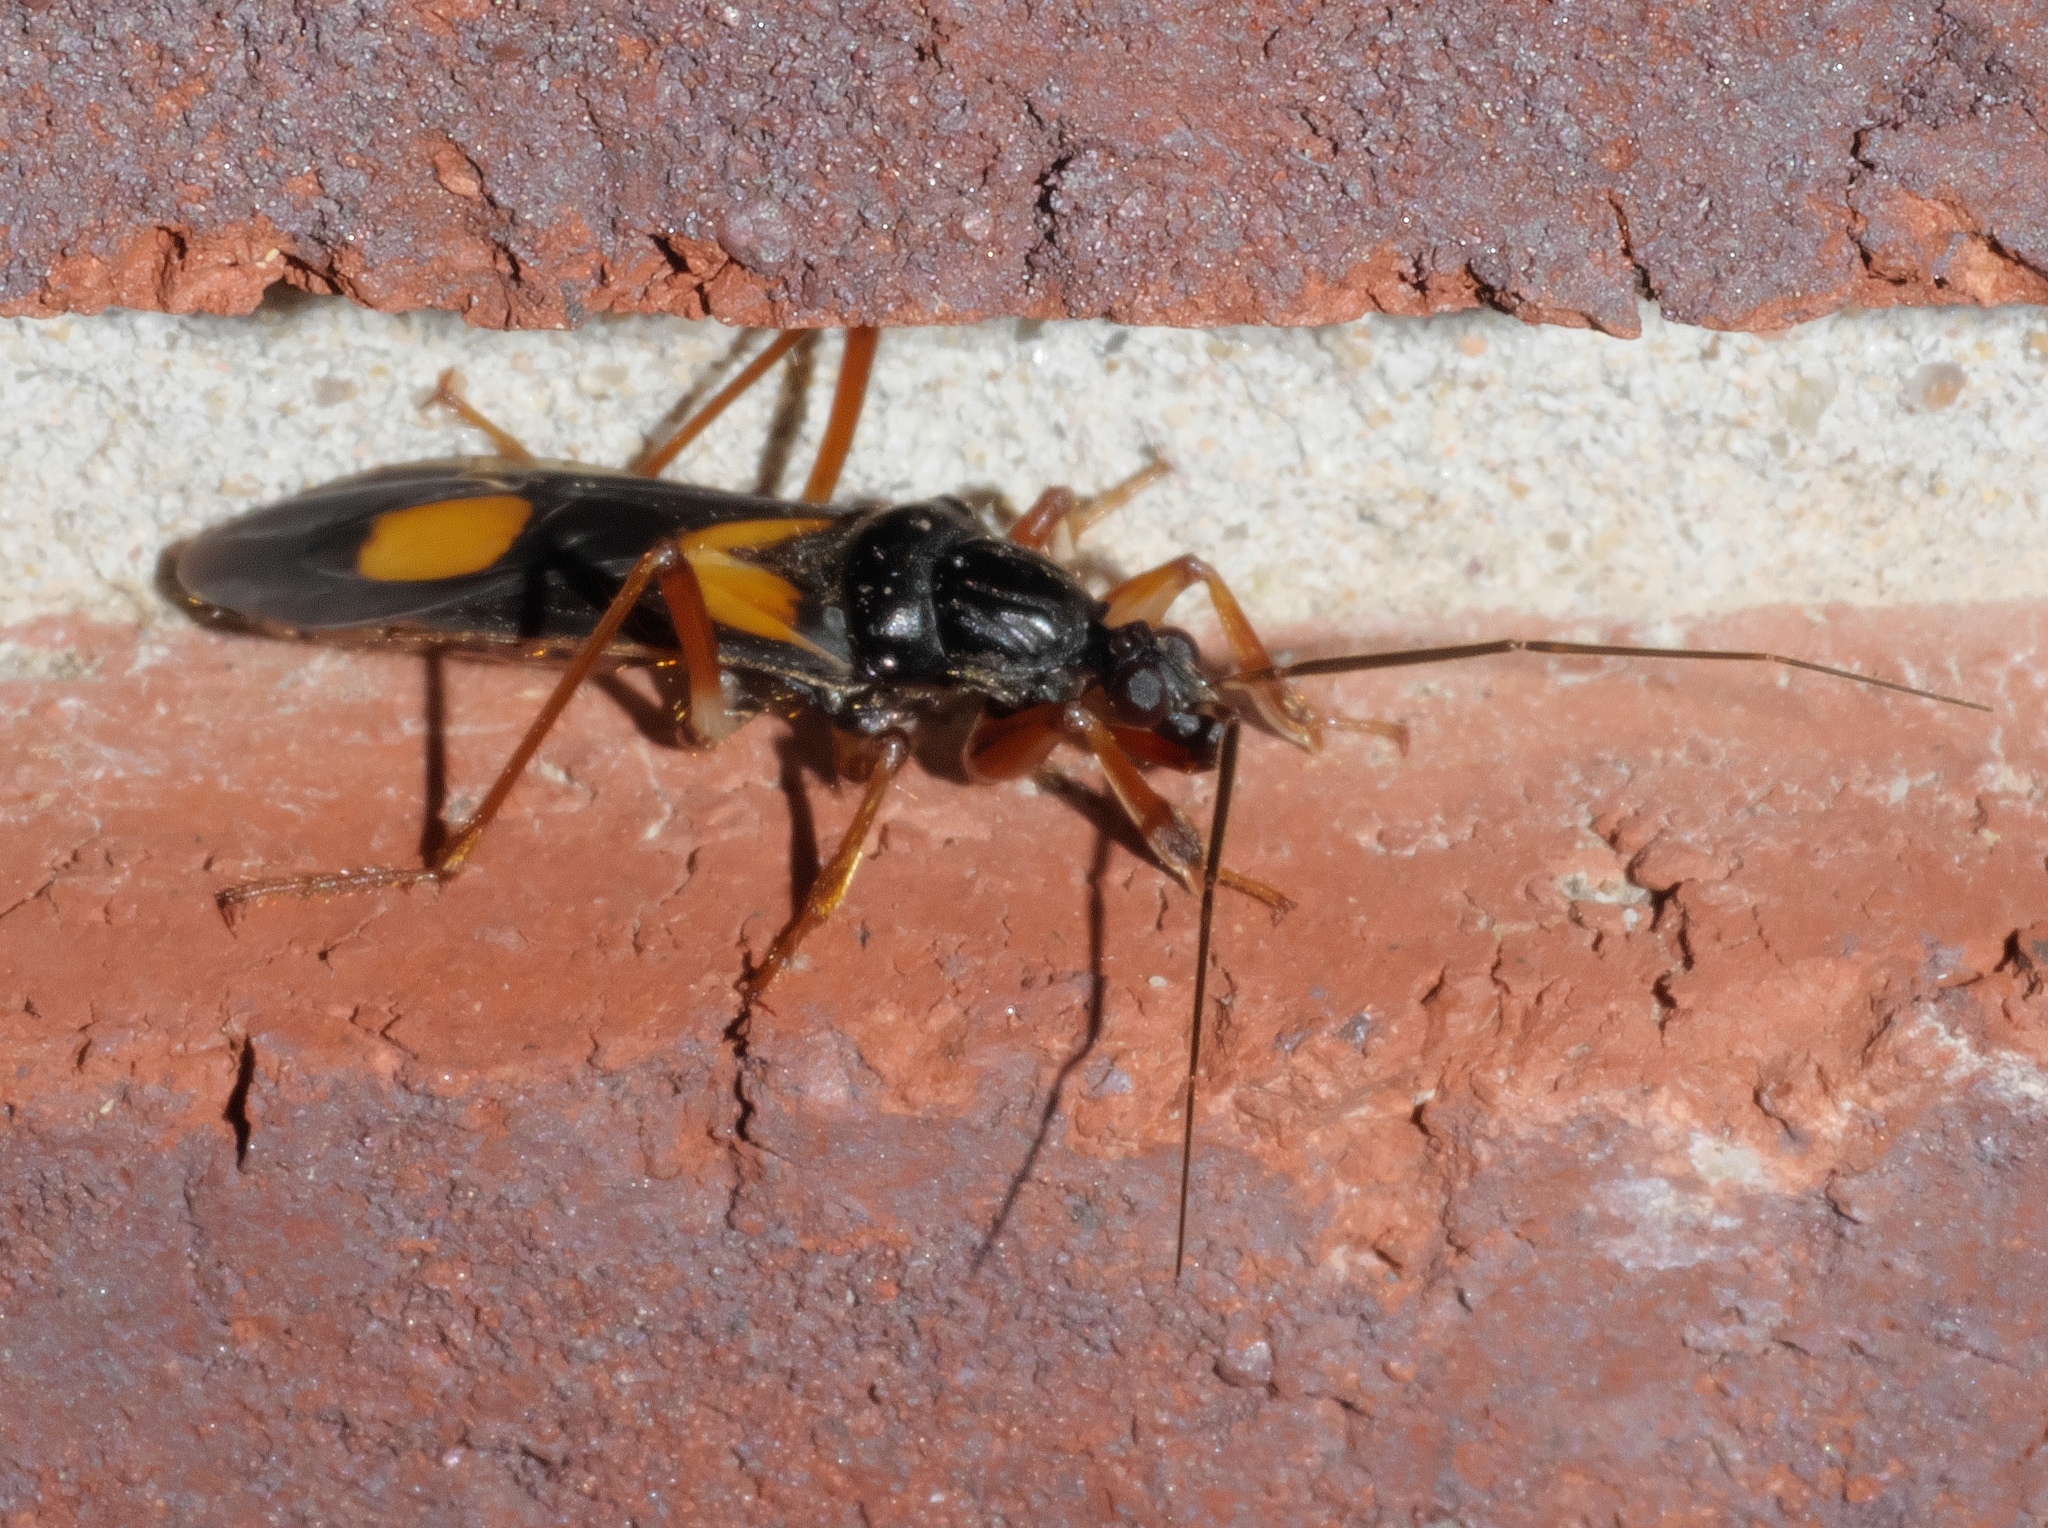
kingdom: Animalia
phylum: Arthropoda
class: Insecta
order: Hemiptera
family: Reduviidae
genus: Rasahus
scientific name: Rasahus hamatus
